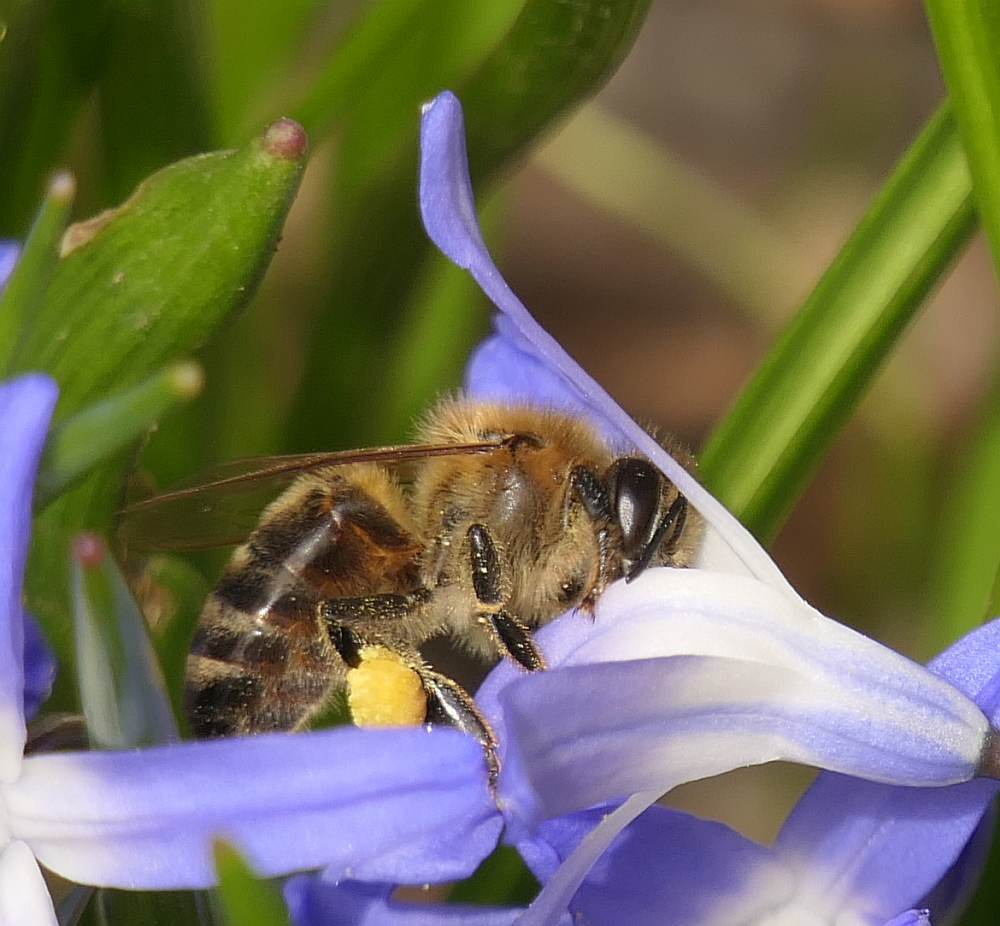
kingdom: Animalia
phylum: Arthropoda
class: Insecta
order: Hymenoptera
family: Apidae
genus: Apis
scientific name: Apis mellifera
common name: Honey bee
